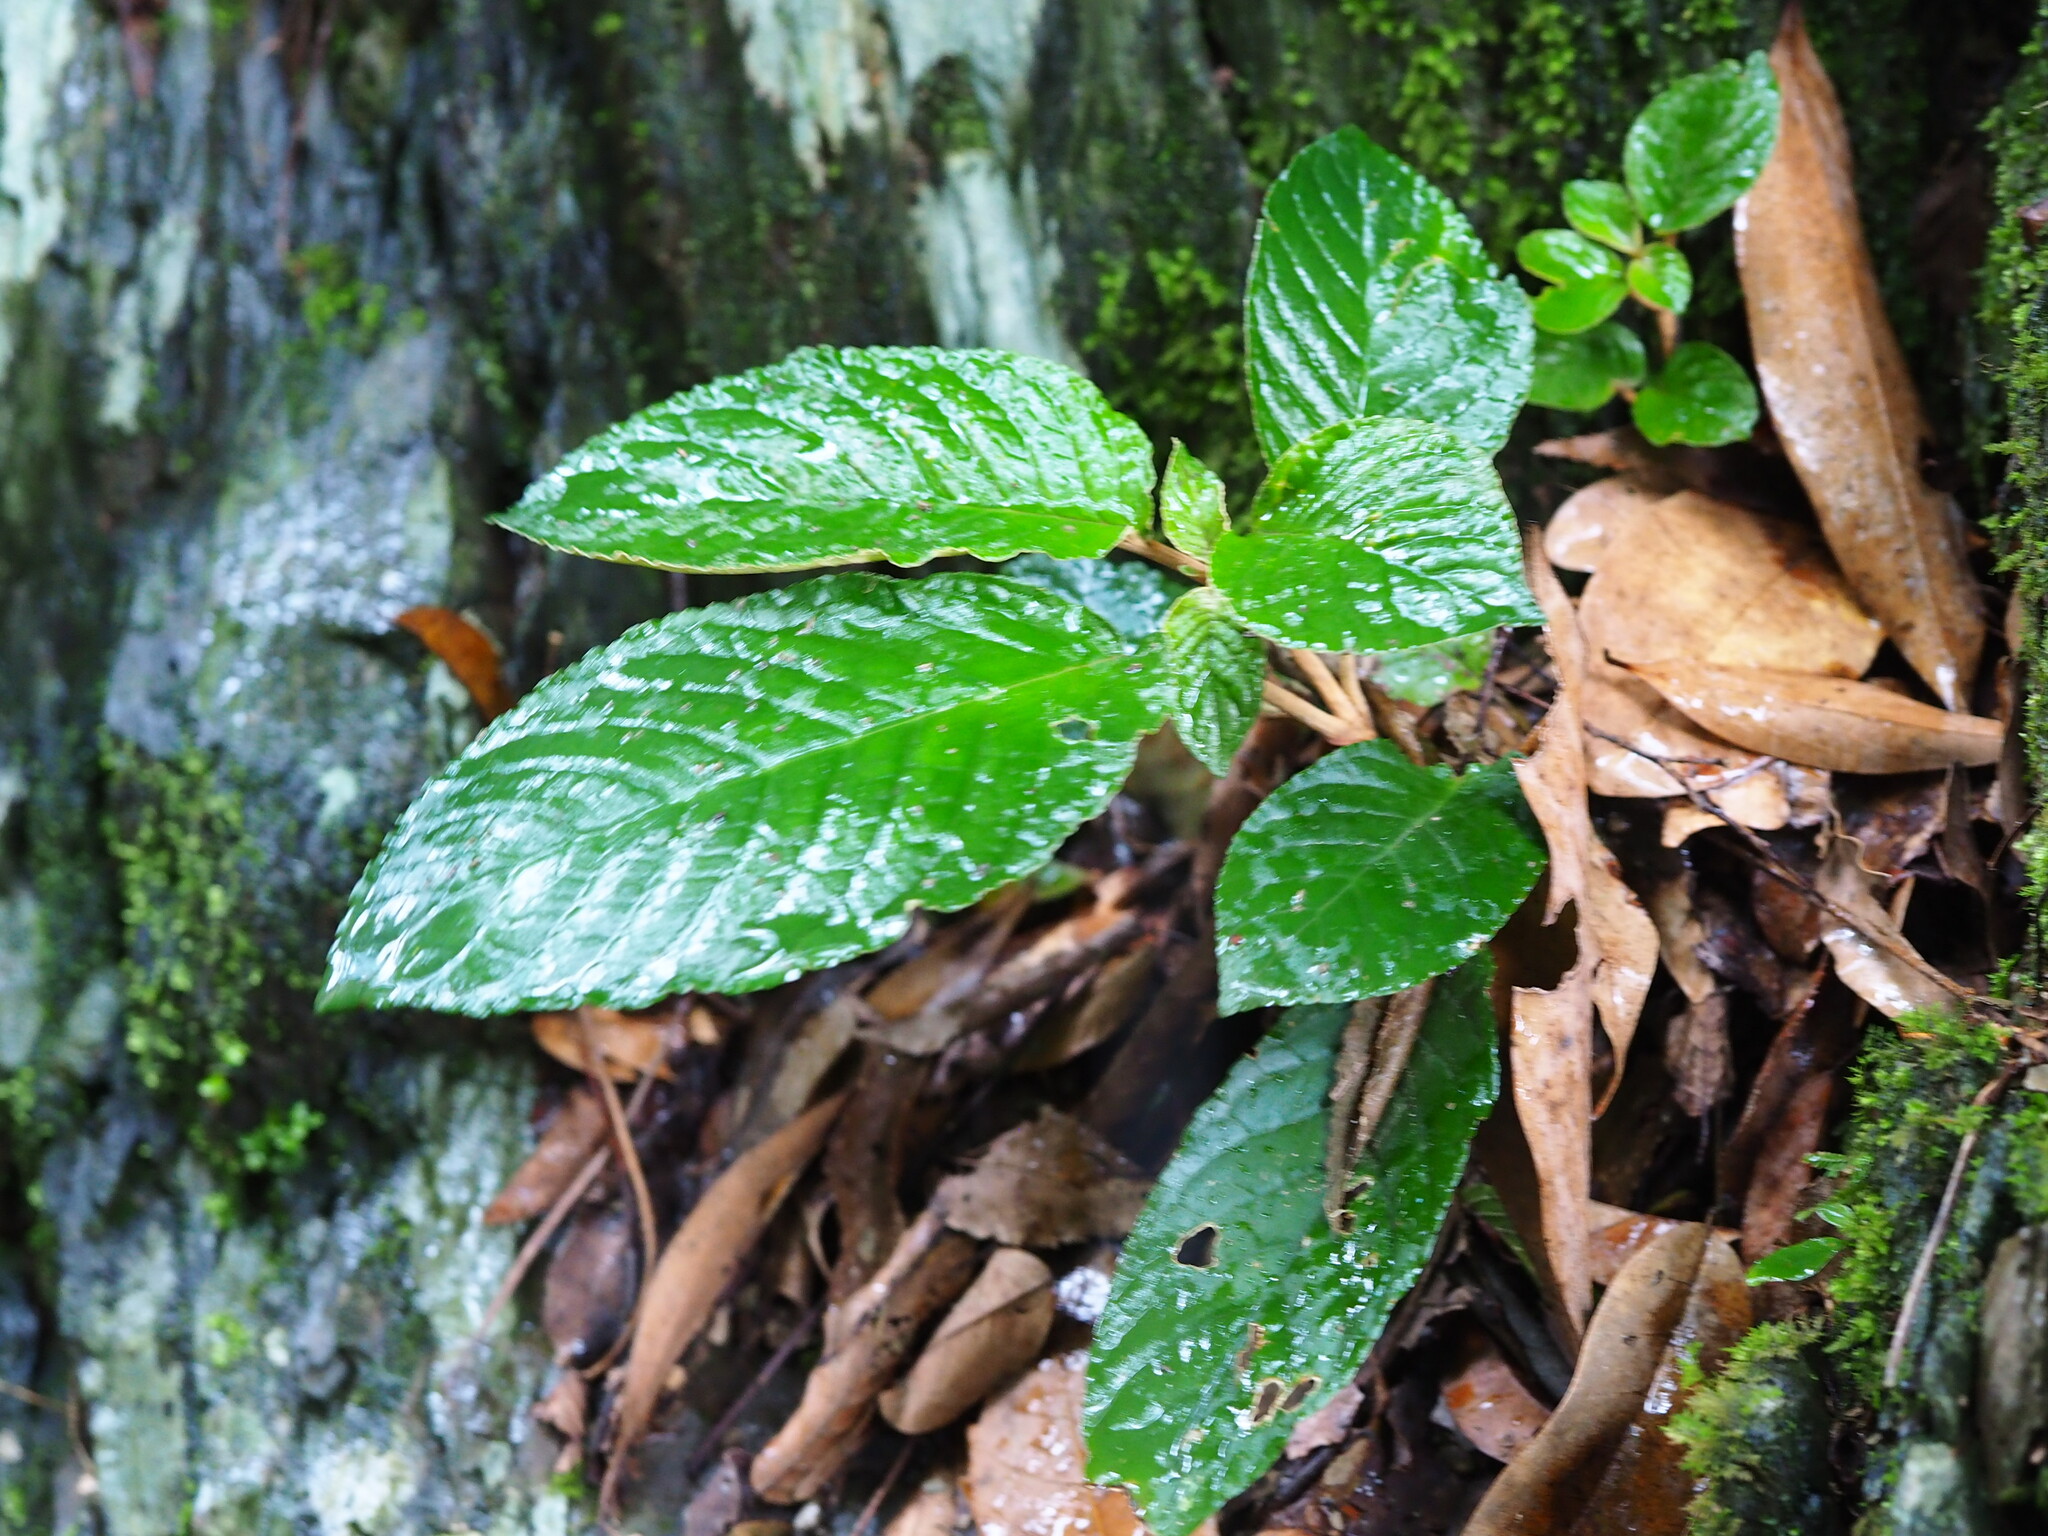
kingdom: Plantae
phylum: Tracheophyta
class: Magnoliopsida
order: Lamiales
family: Gesneriaceae
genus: Paraboea
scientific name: Paraboea swinhoei
